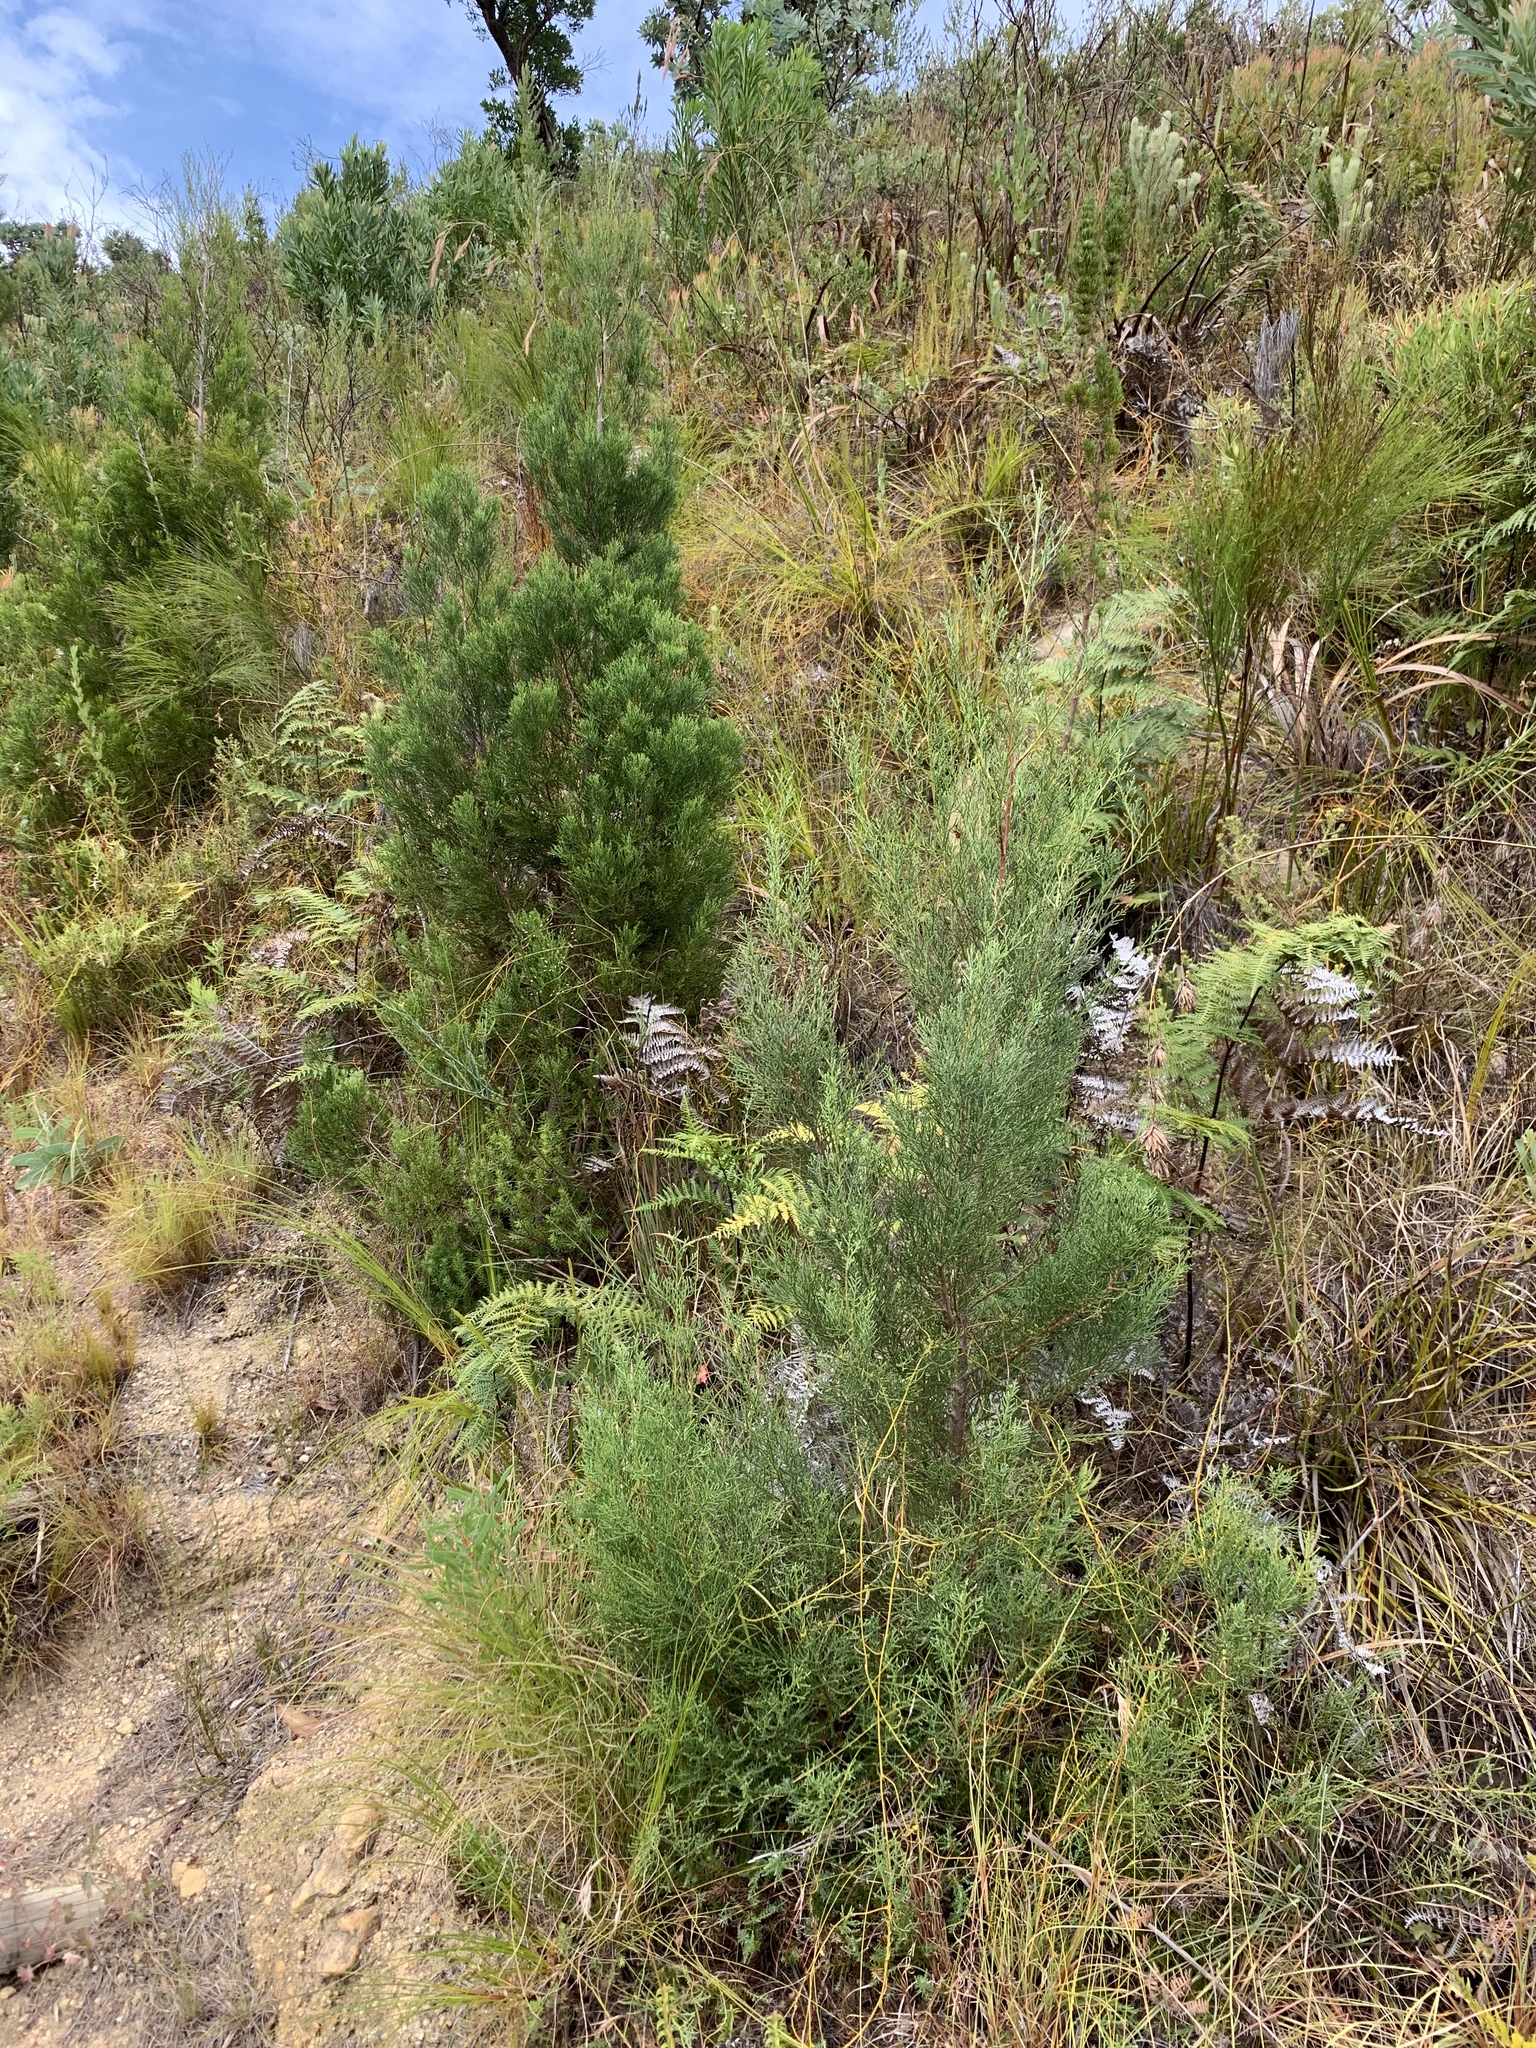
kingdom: Plantae
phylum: Tracheophyta
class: Pinopsida
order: Pinales
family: Cupressaceae
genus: Widdringtonia
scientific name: Widdringtonia nodiflora
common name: Cape cypress
